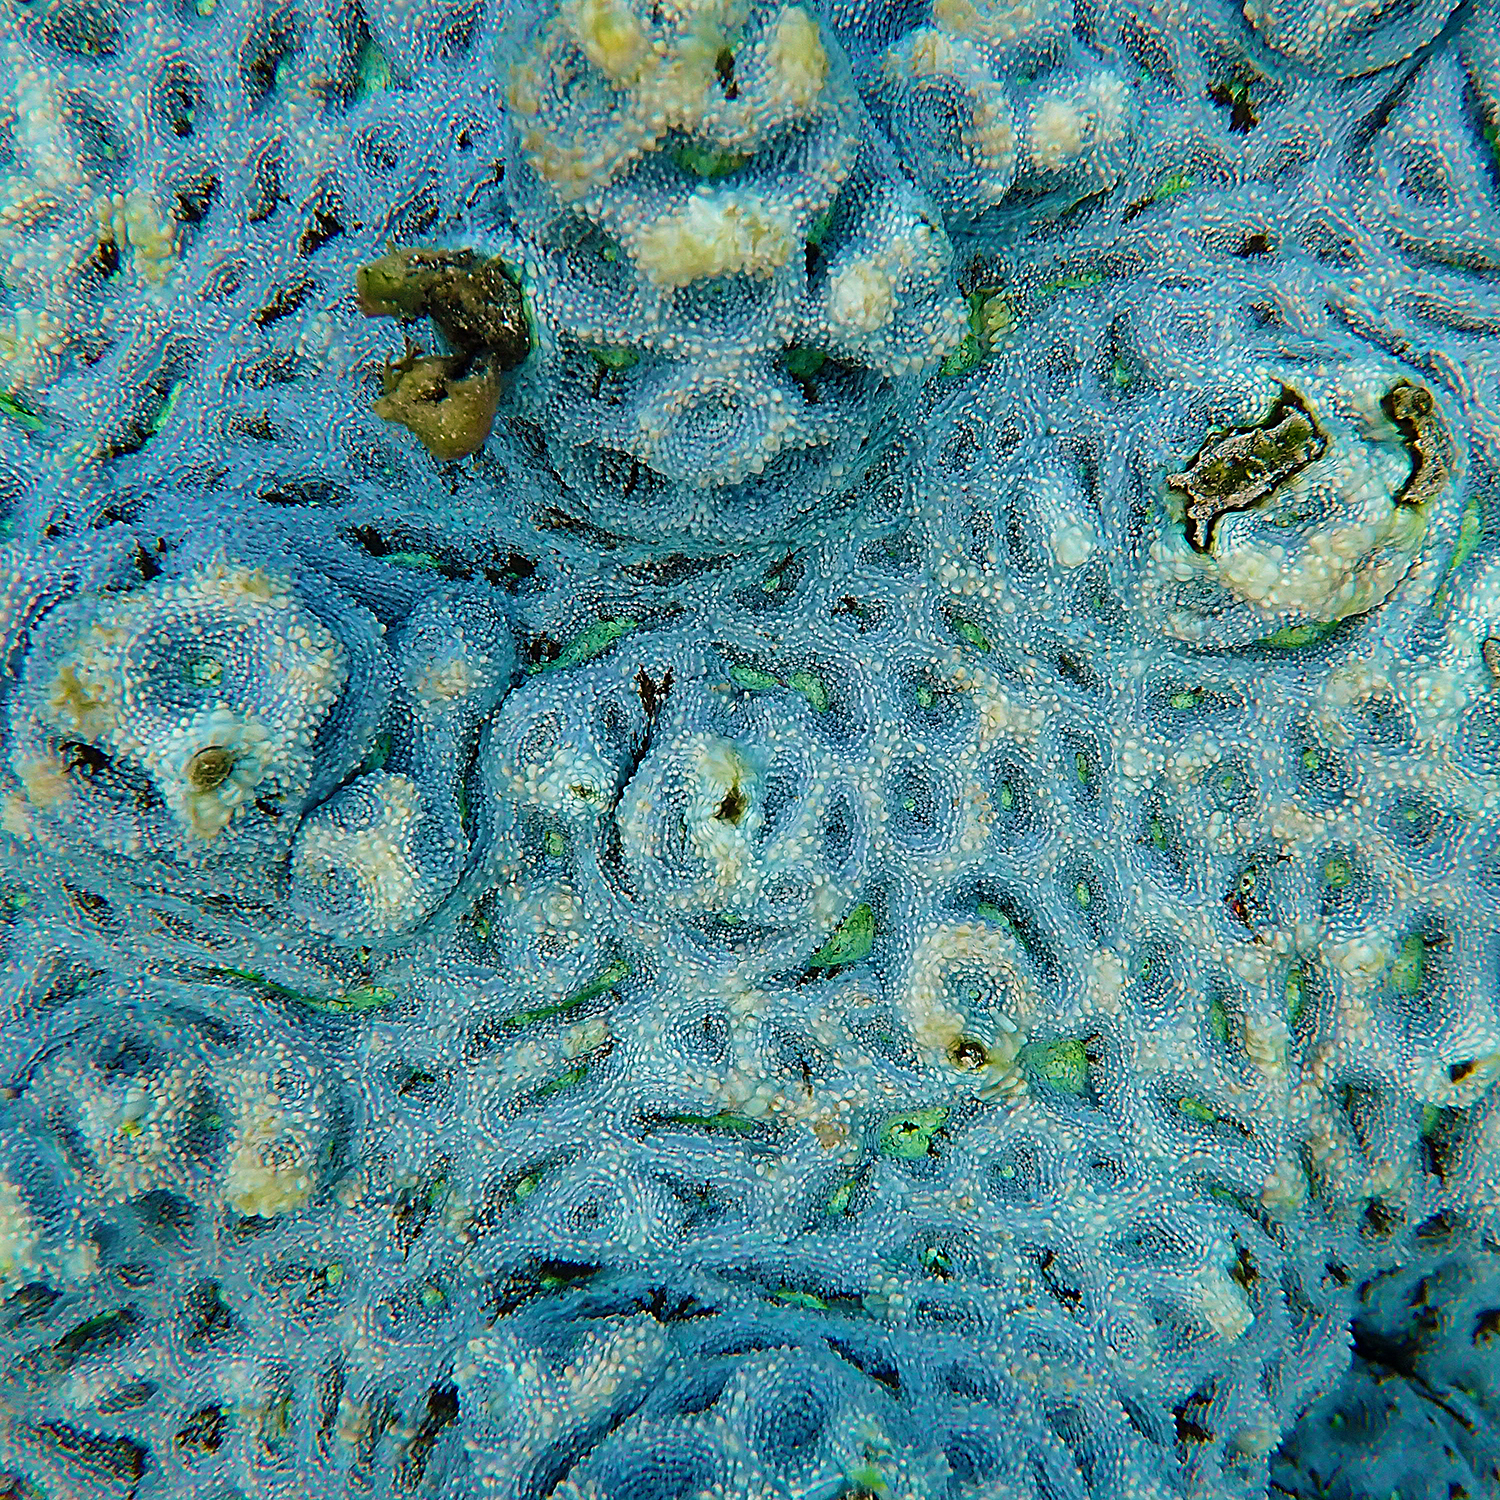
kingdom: Animalia
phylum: Cnidaria
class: Anthozoa
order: Scleractinia
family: Lobophylliidae
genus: Homophyllia
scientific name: Homophyllia bowerbanki
